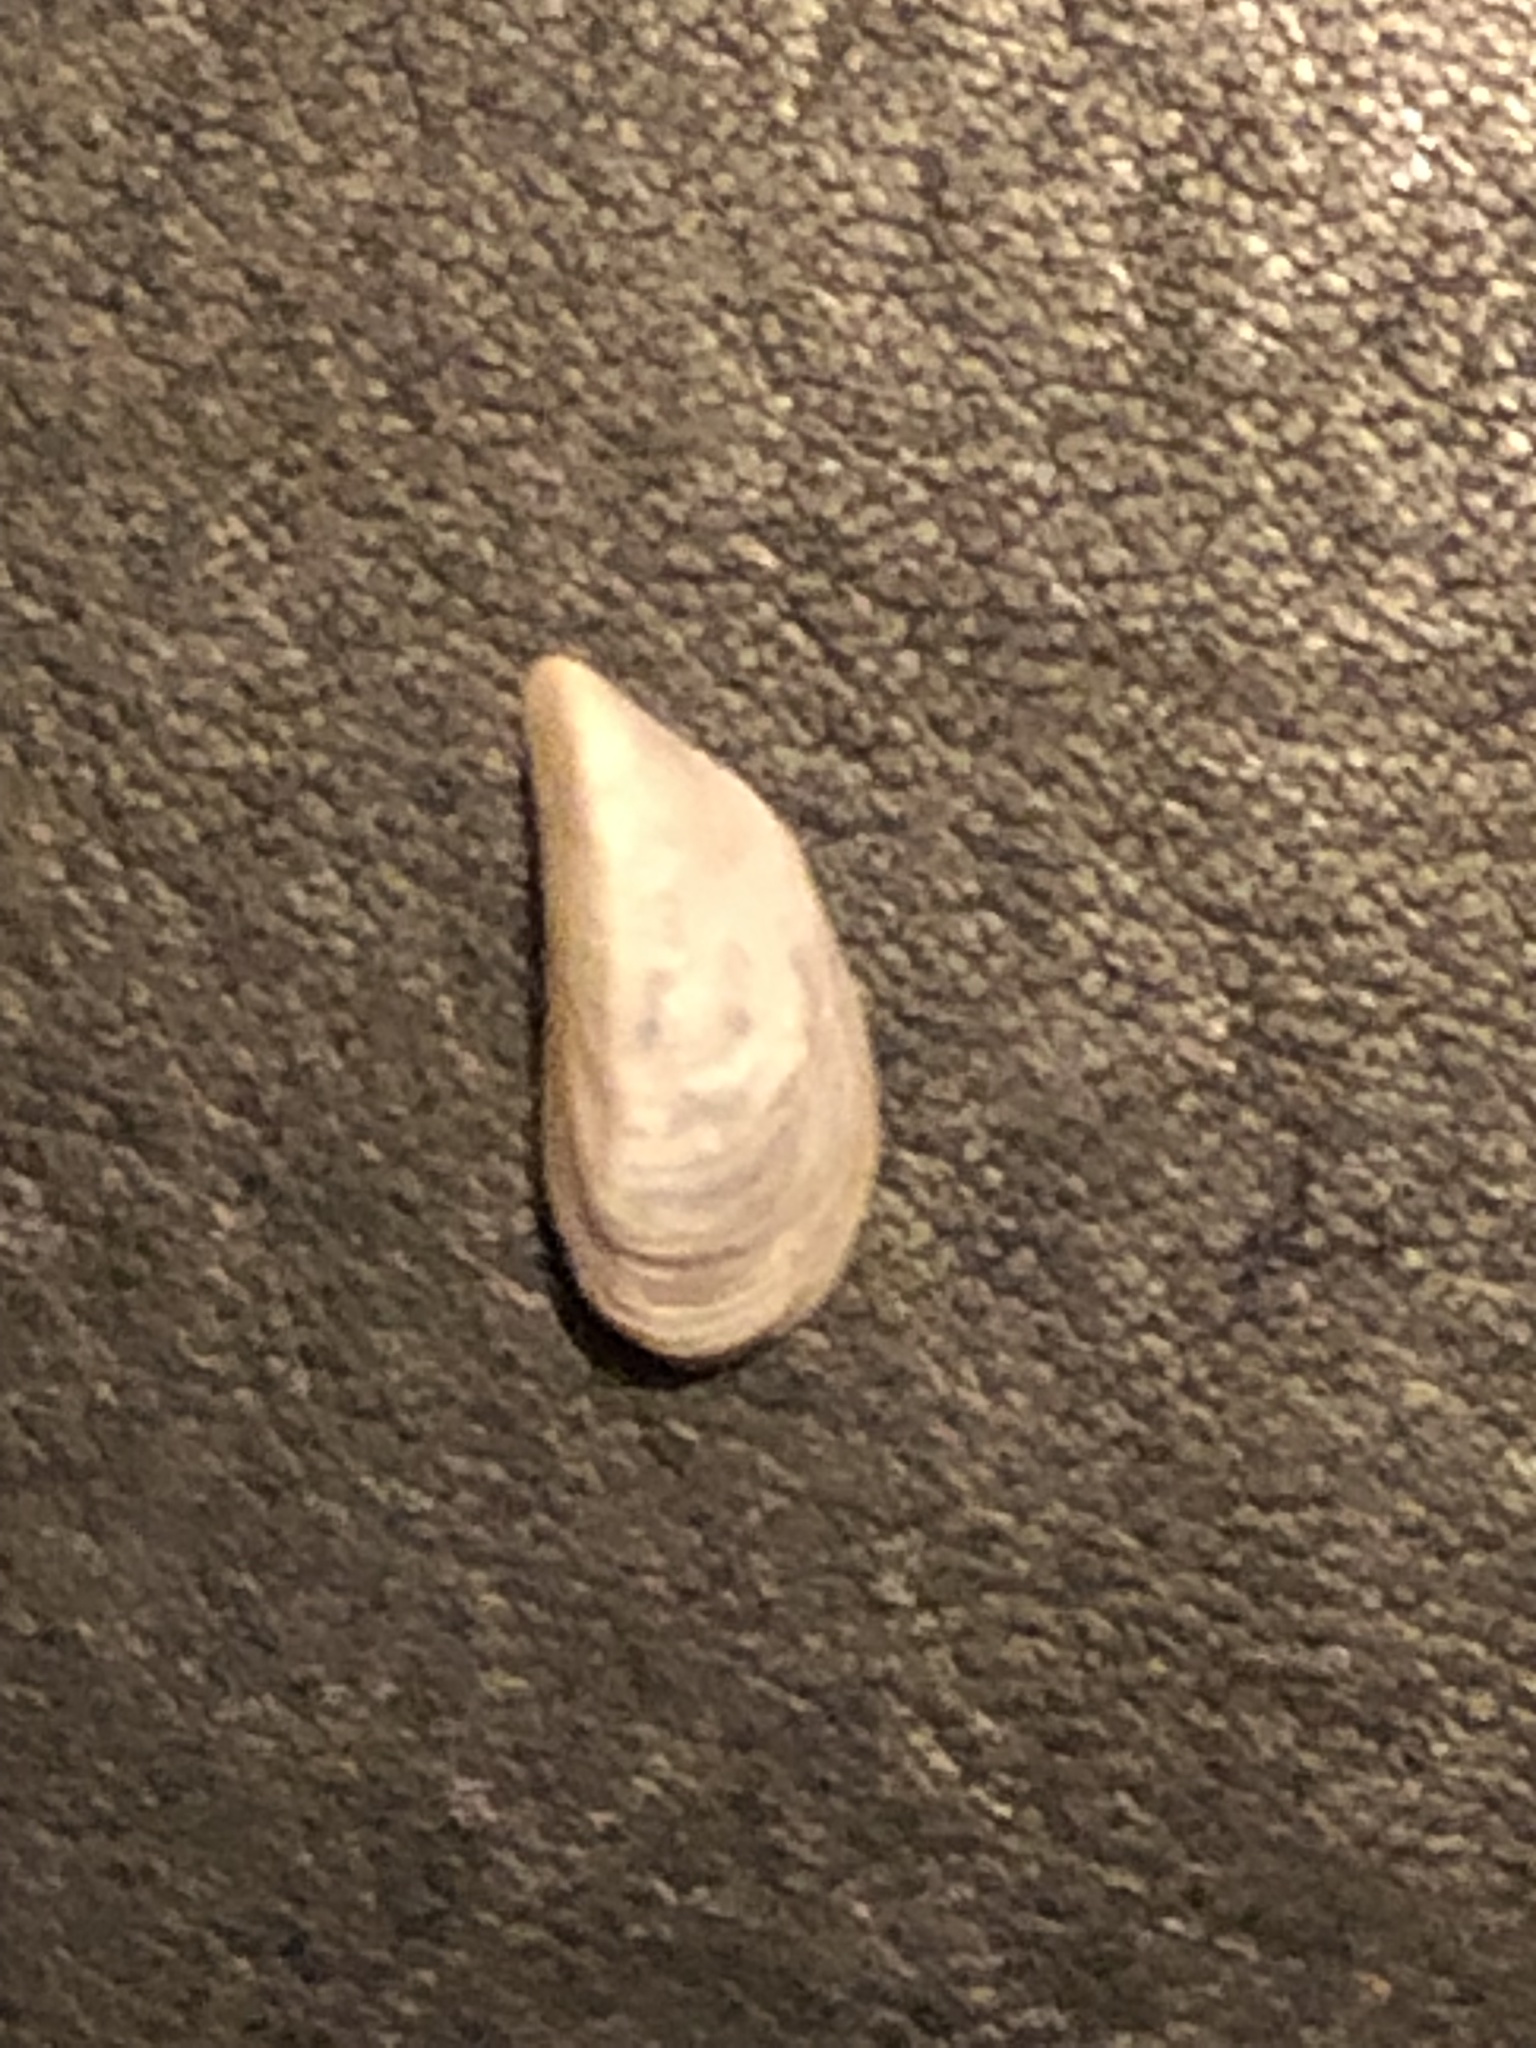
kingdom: Animalia
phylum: Mollusca
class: Bivalvia
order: Myida
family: Dreissenidae
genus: Dreissena
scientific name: Dreissena polymorpha
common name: Zebra mussel
